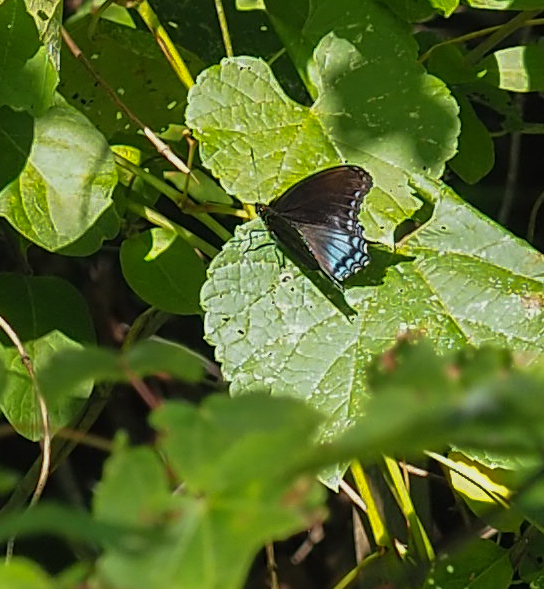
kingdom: Animalia
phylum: Arthropoda
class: Insecta
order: Lepidoptera
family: Nymphalidae
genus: Limenitis
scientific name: Limenitis astyanax
